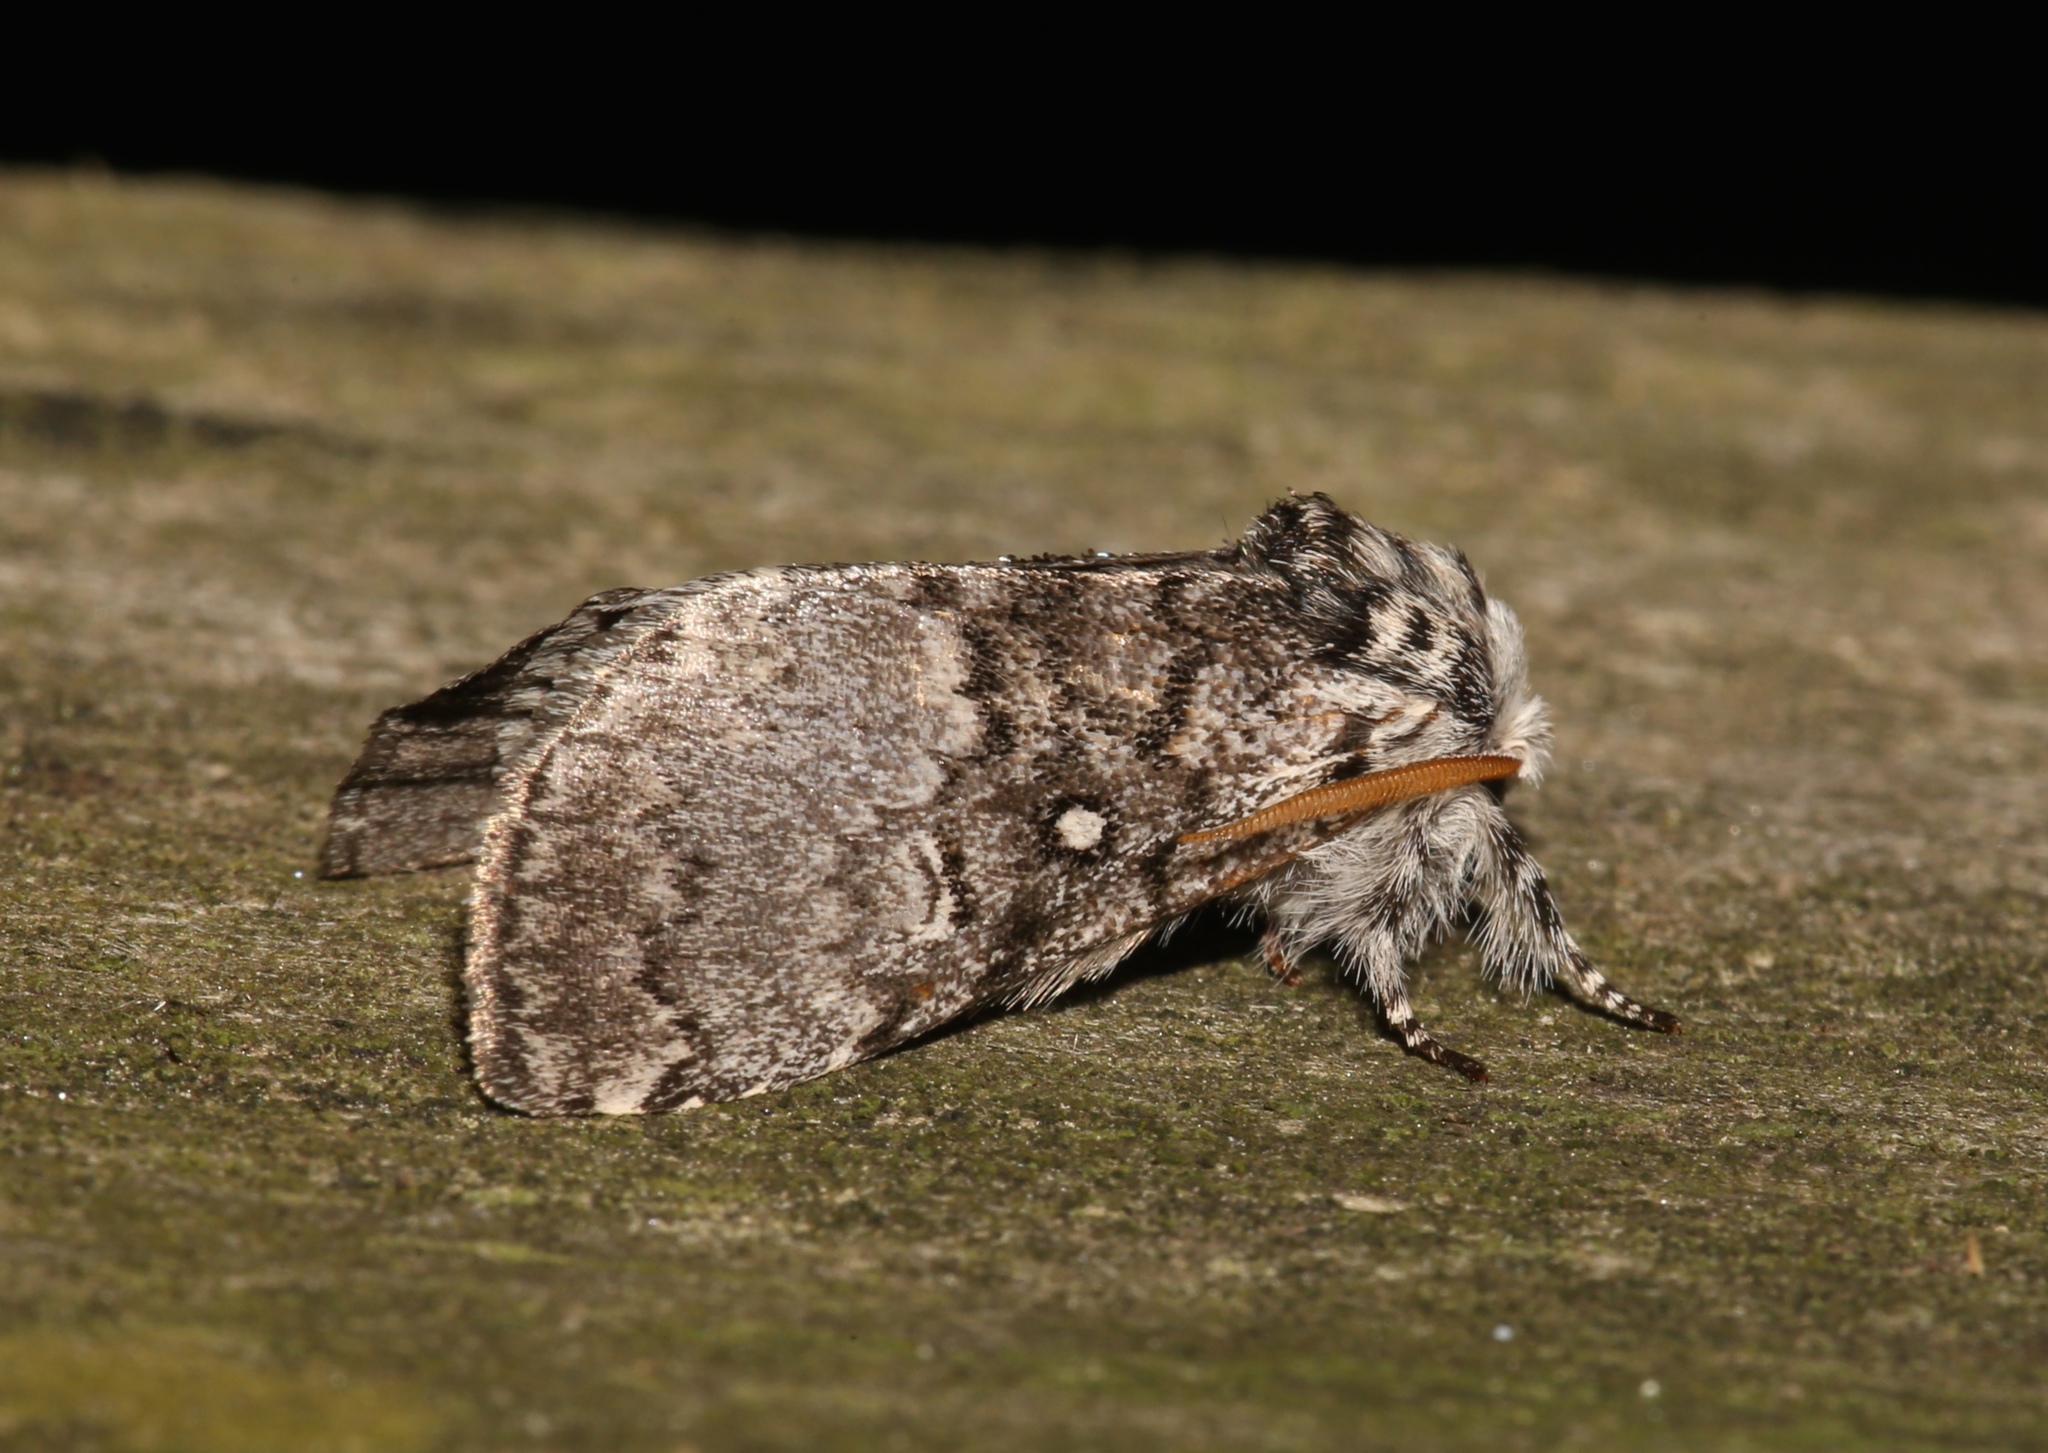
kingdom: Animalia
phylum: Arthropoda
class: Insecta
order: Lepidoptera
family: Noctuidae
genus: Colocasia
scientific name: Colocasia propinquilinea
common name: Close-banded demas
